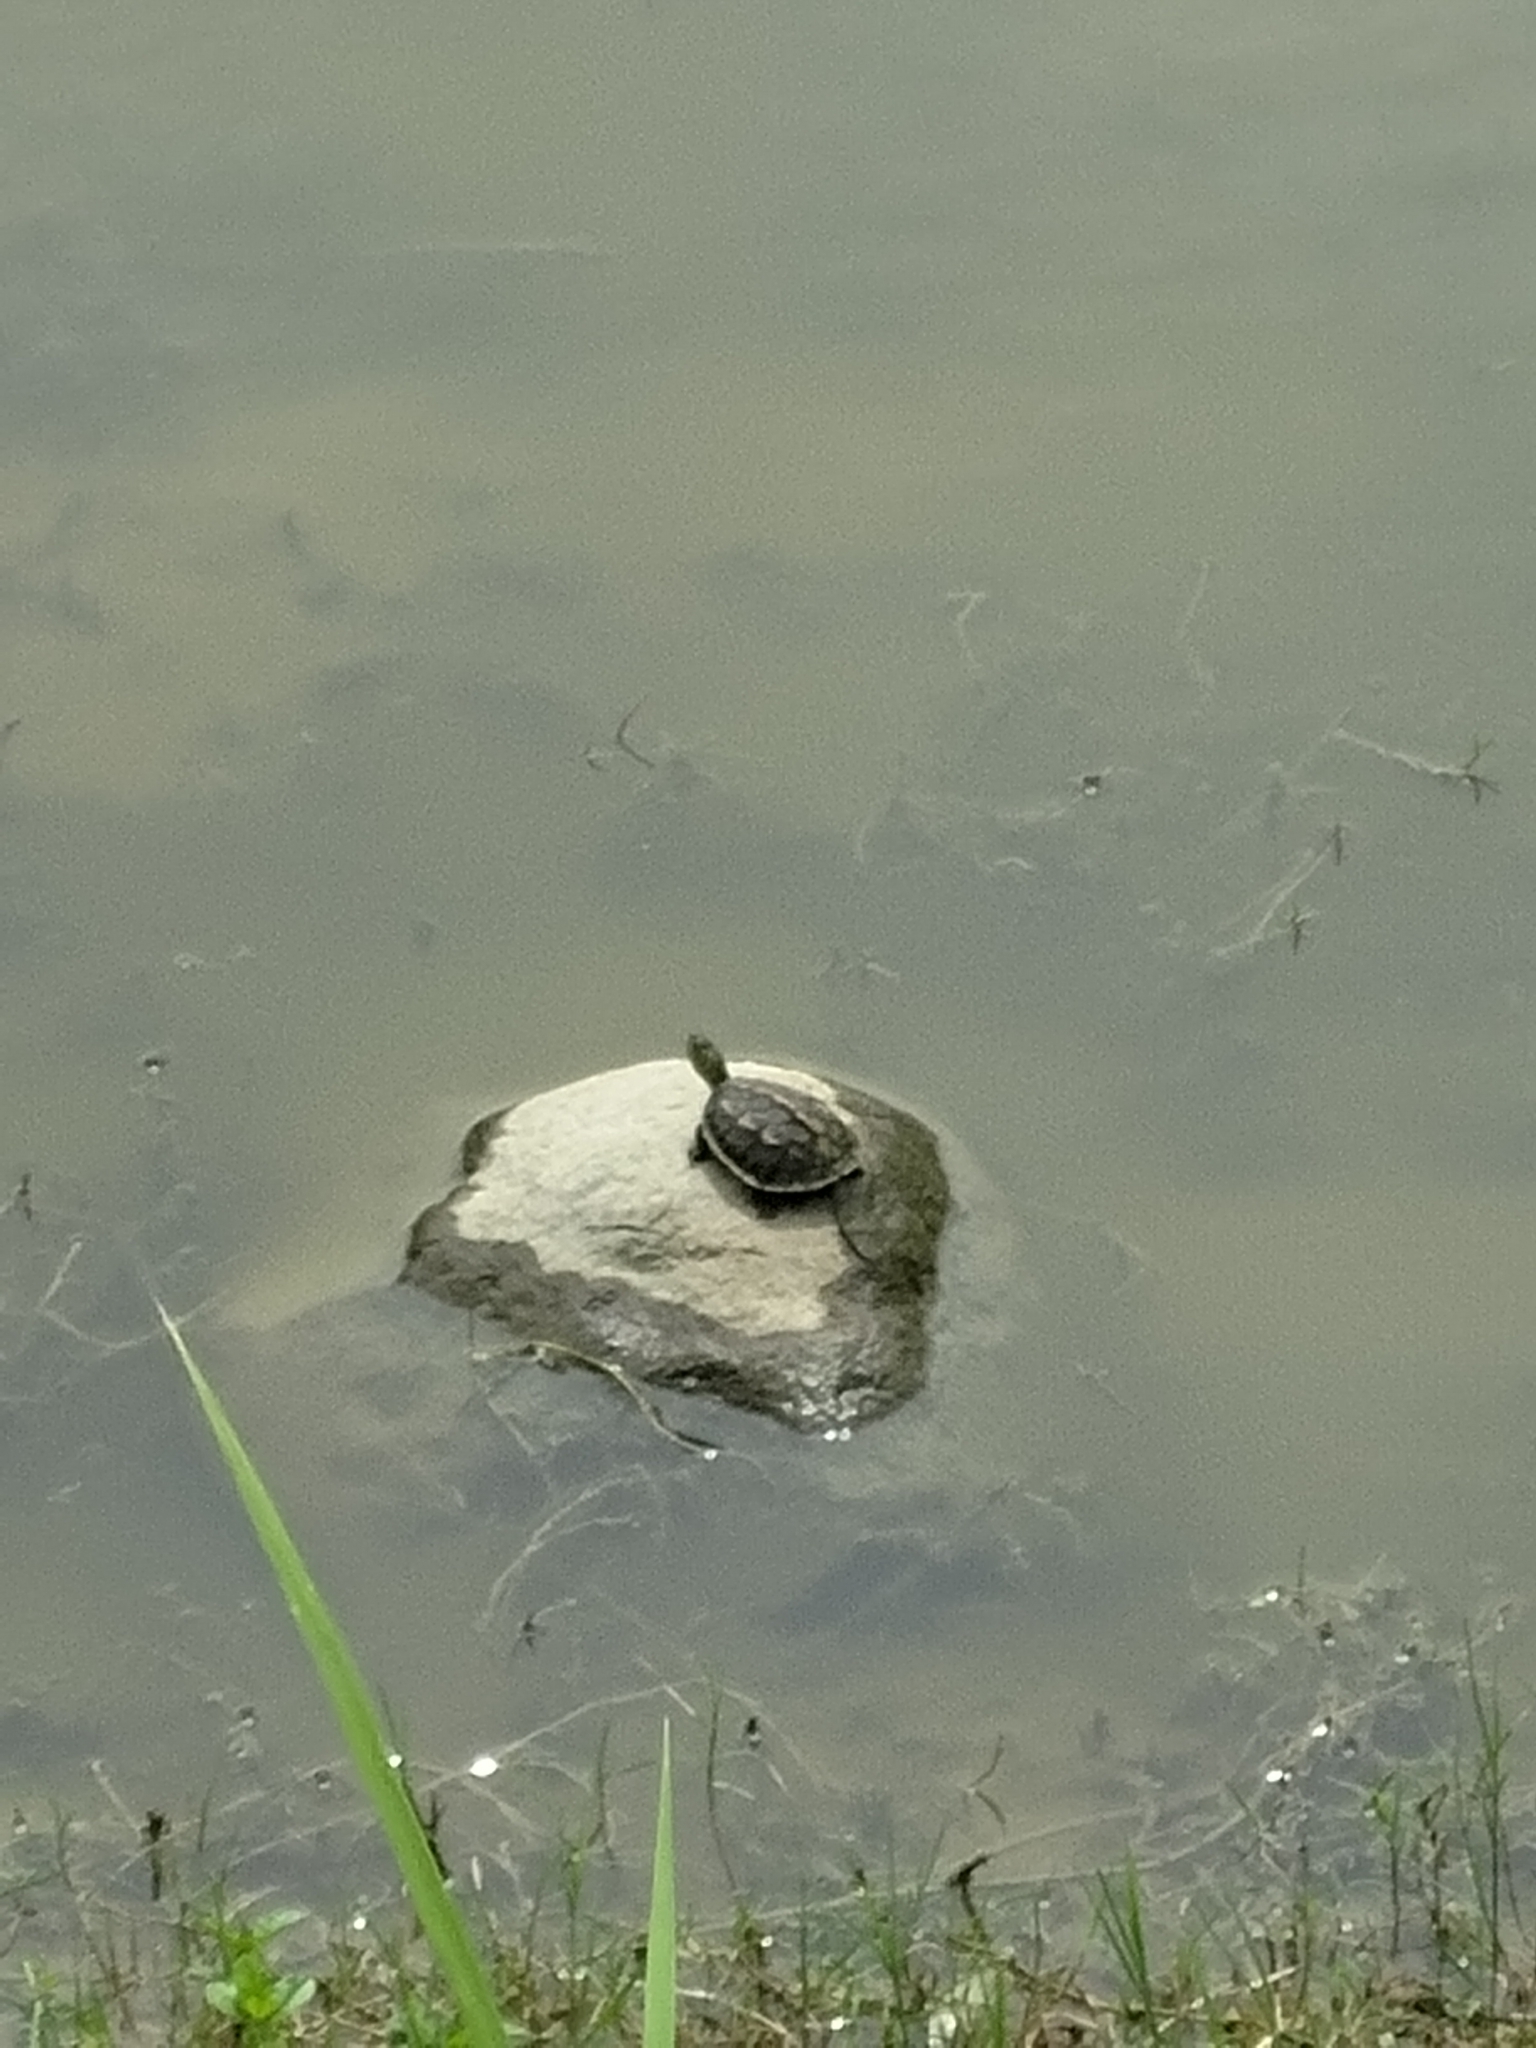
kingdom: Animalia
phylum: Chordata
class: Testudines
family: Geoemydidae
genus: Mauremys
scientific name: Mauremys sinensis
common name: Chinese stripe-necked turtle
